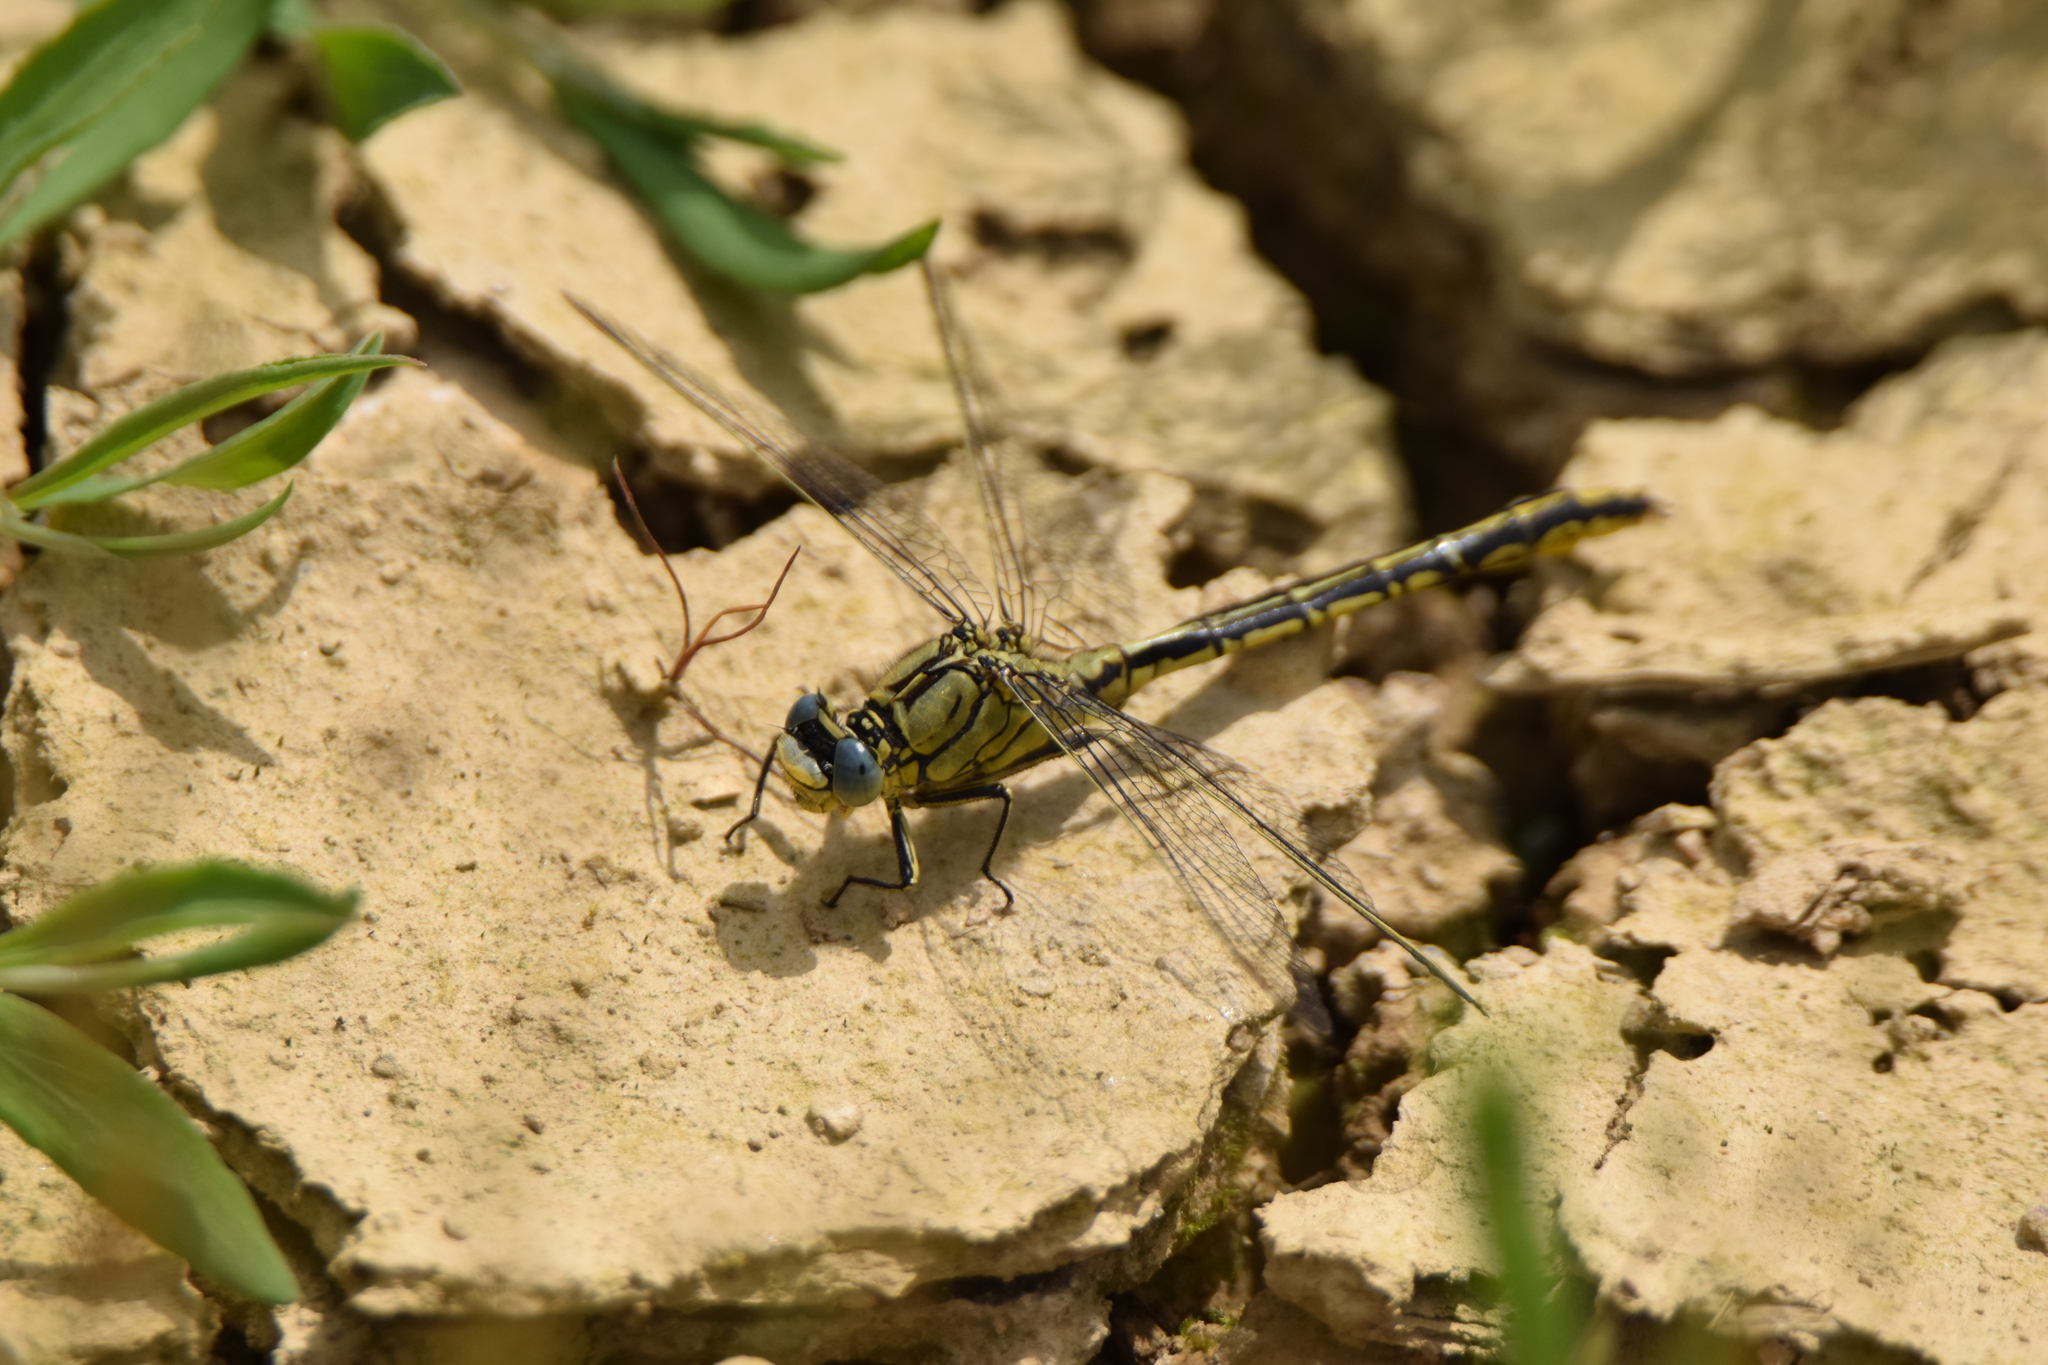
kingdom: Animalia
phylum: Arthropoda
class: Insecta
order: Odonata
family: Gomphidae
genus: Gomphus
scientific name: Gomphus pulchellus
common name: Western clubtail
